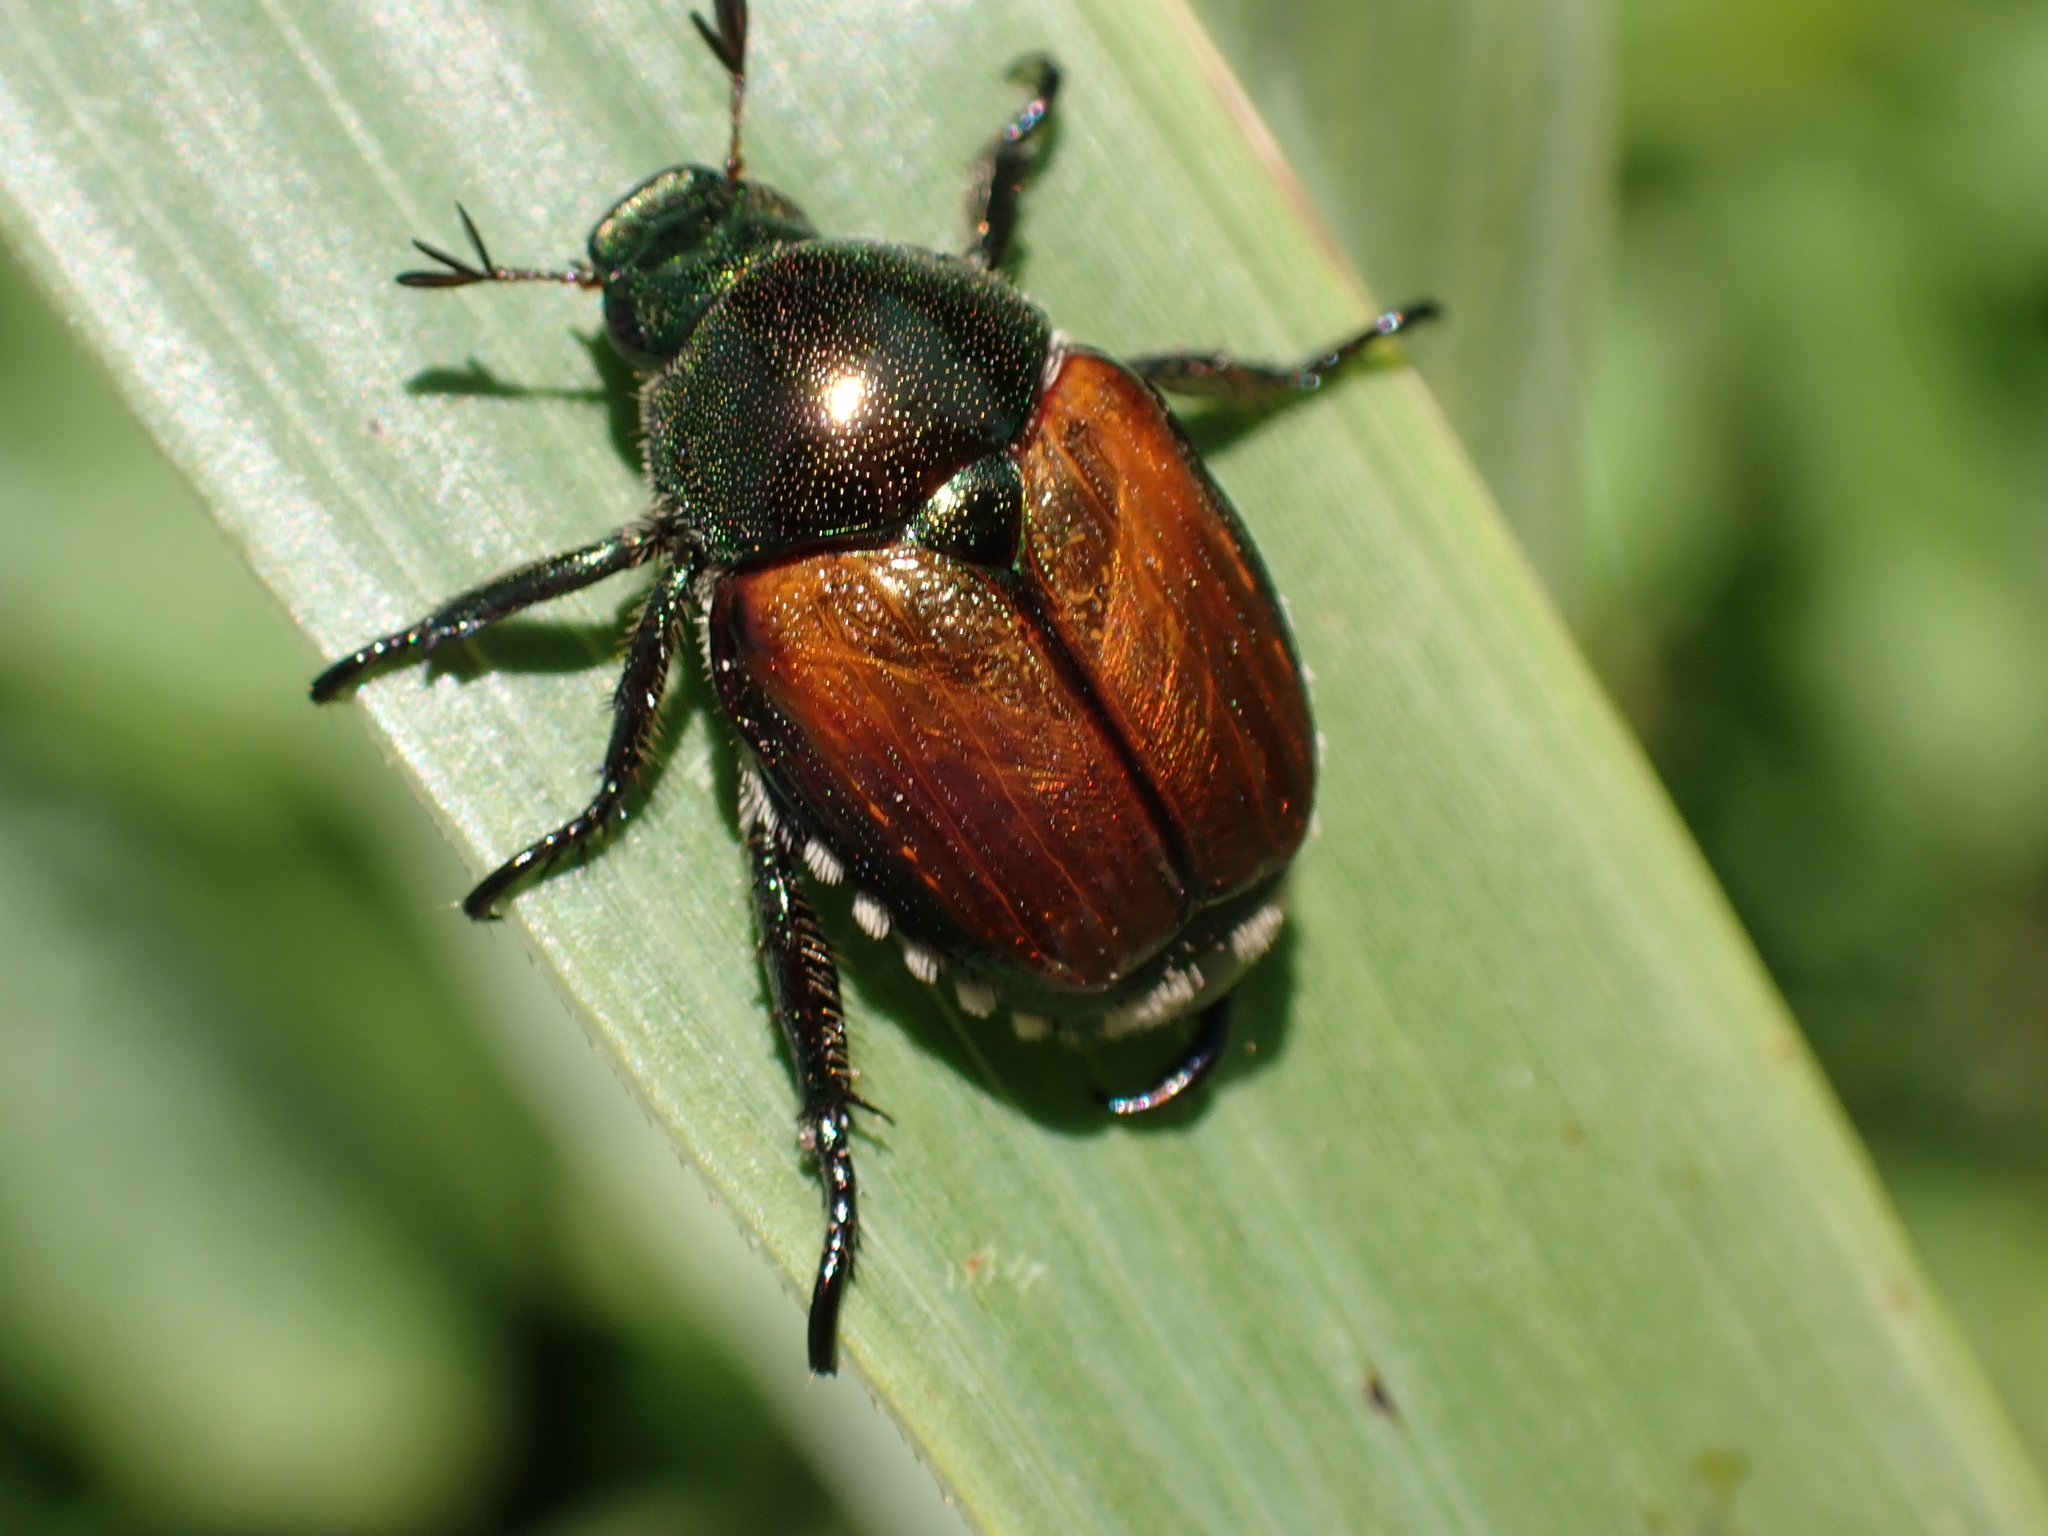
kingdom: Animalia
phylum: Arthropoda
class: Insecta
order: Coleoptera
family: Scarabaeidae
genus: Popillia
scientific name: Popillia japonica
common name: Japanese beetle
